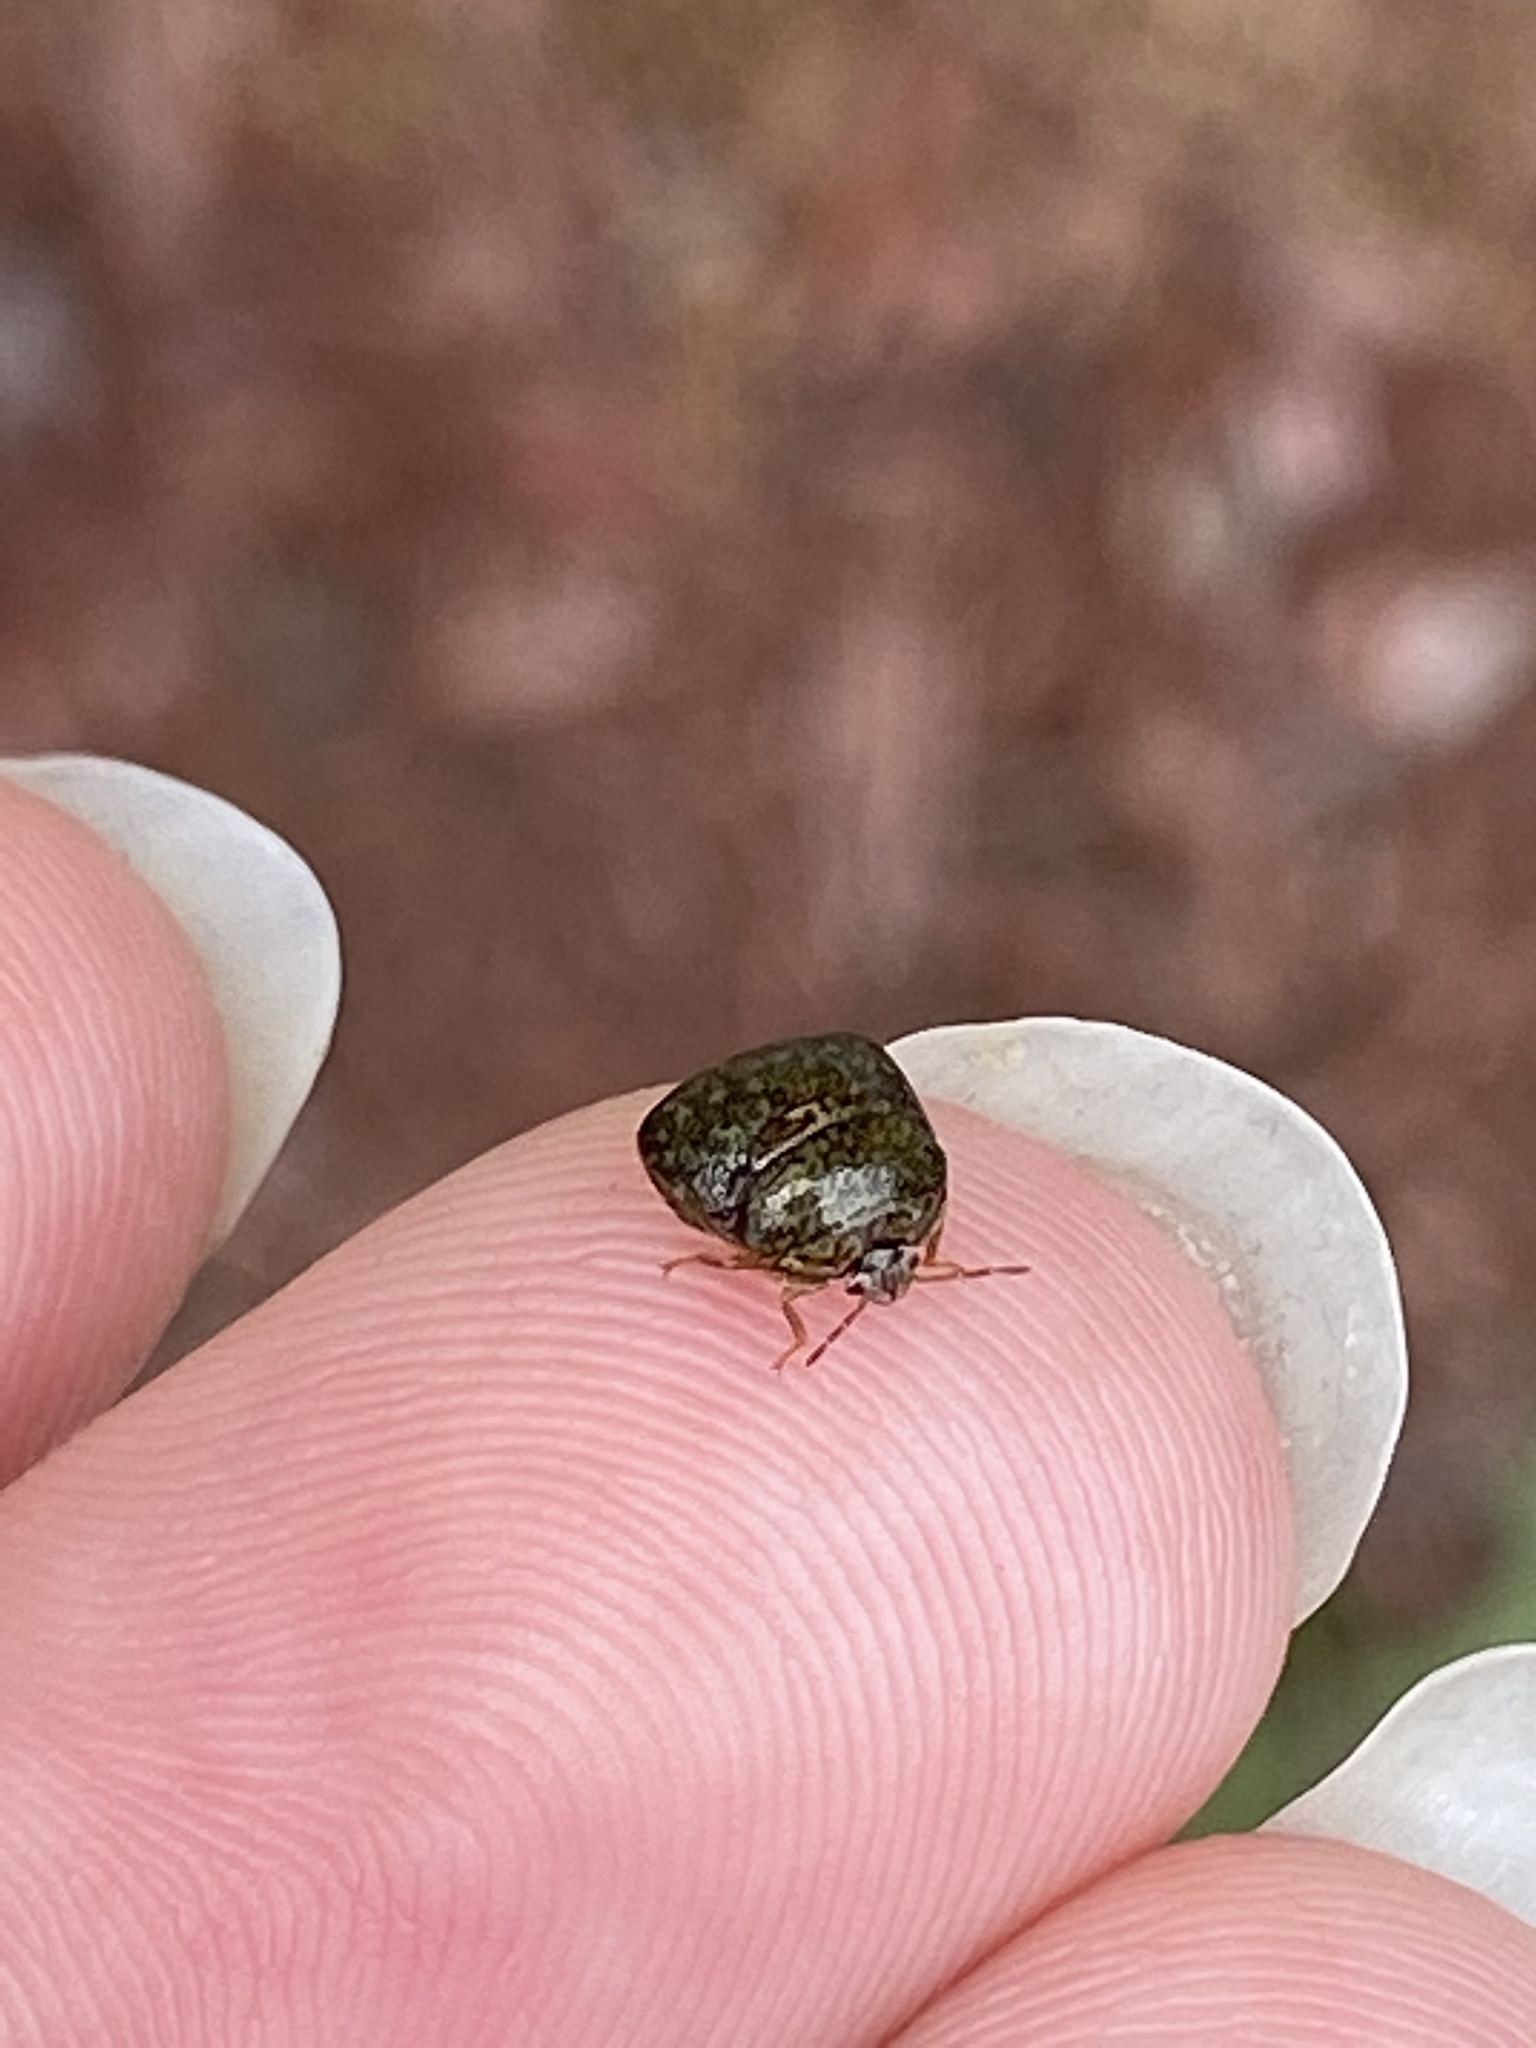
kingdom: Animalia
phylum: Arthropoda
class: Insecta
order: Hemiptera
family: Plataspidae
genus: Megacopta
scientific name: Megacopta cribraria
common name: Bean plataspid
